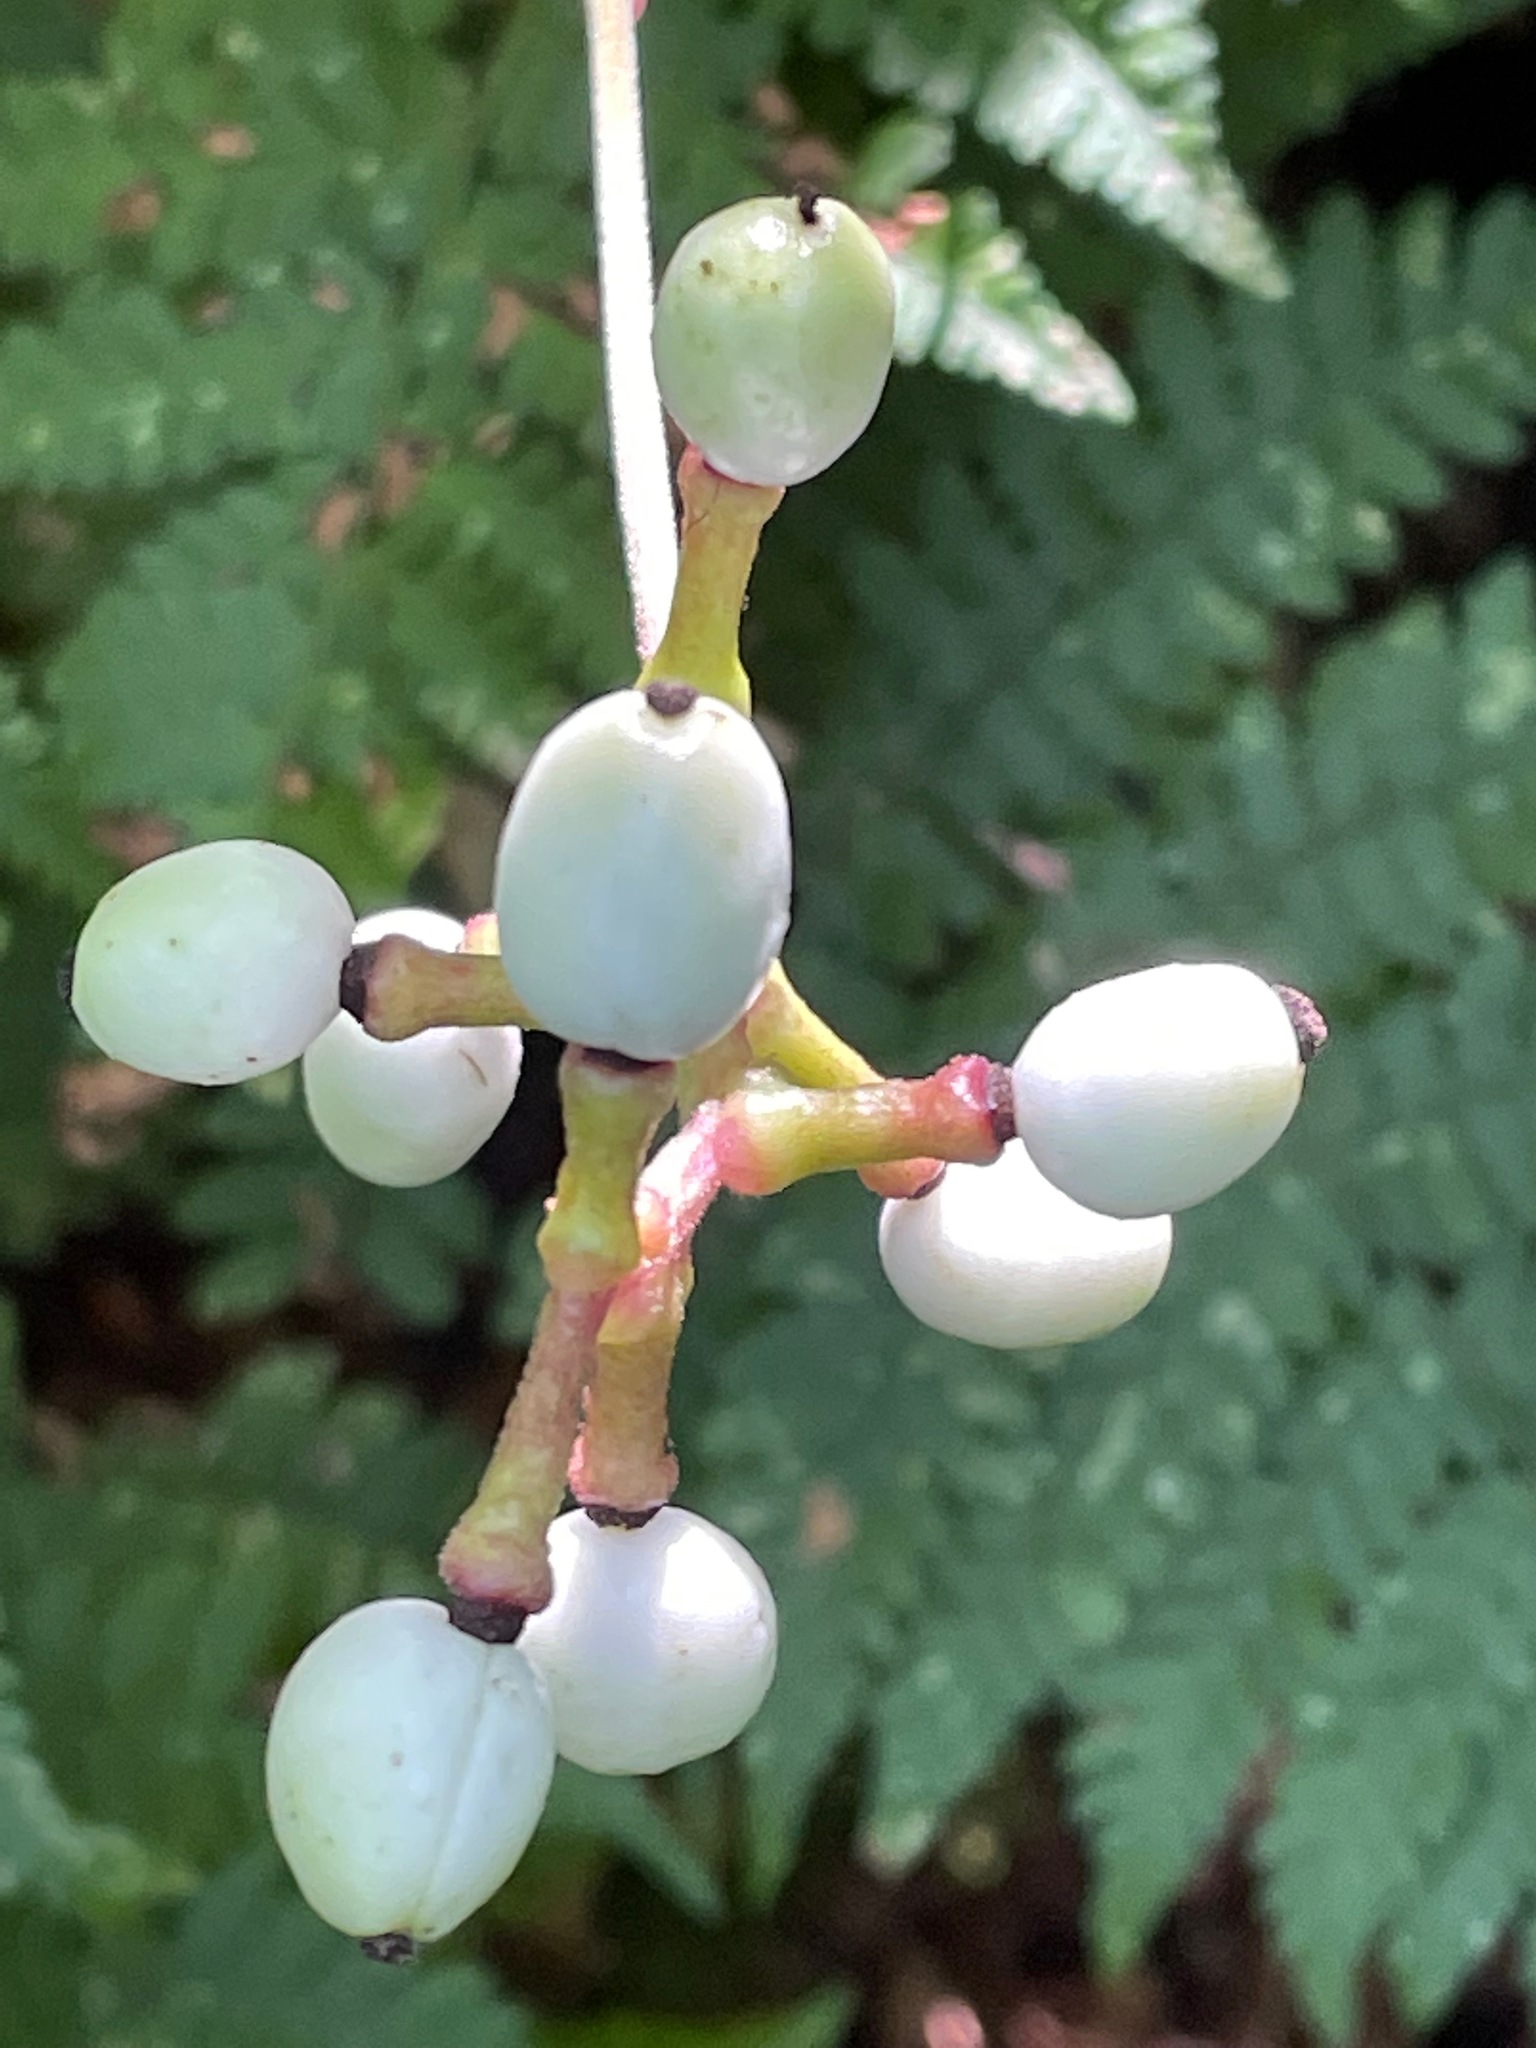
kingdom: Plantae
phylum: Tracheophyta
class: Magnoliopsida
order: Ranunculales
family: Ranunculaceae
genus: Actaea
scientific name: Actaea pachypoda
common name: Doll's-eyes
